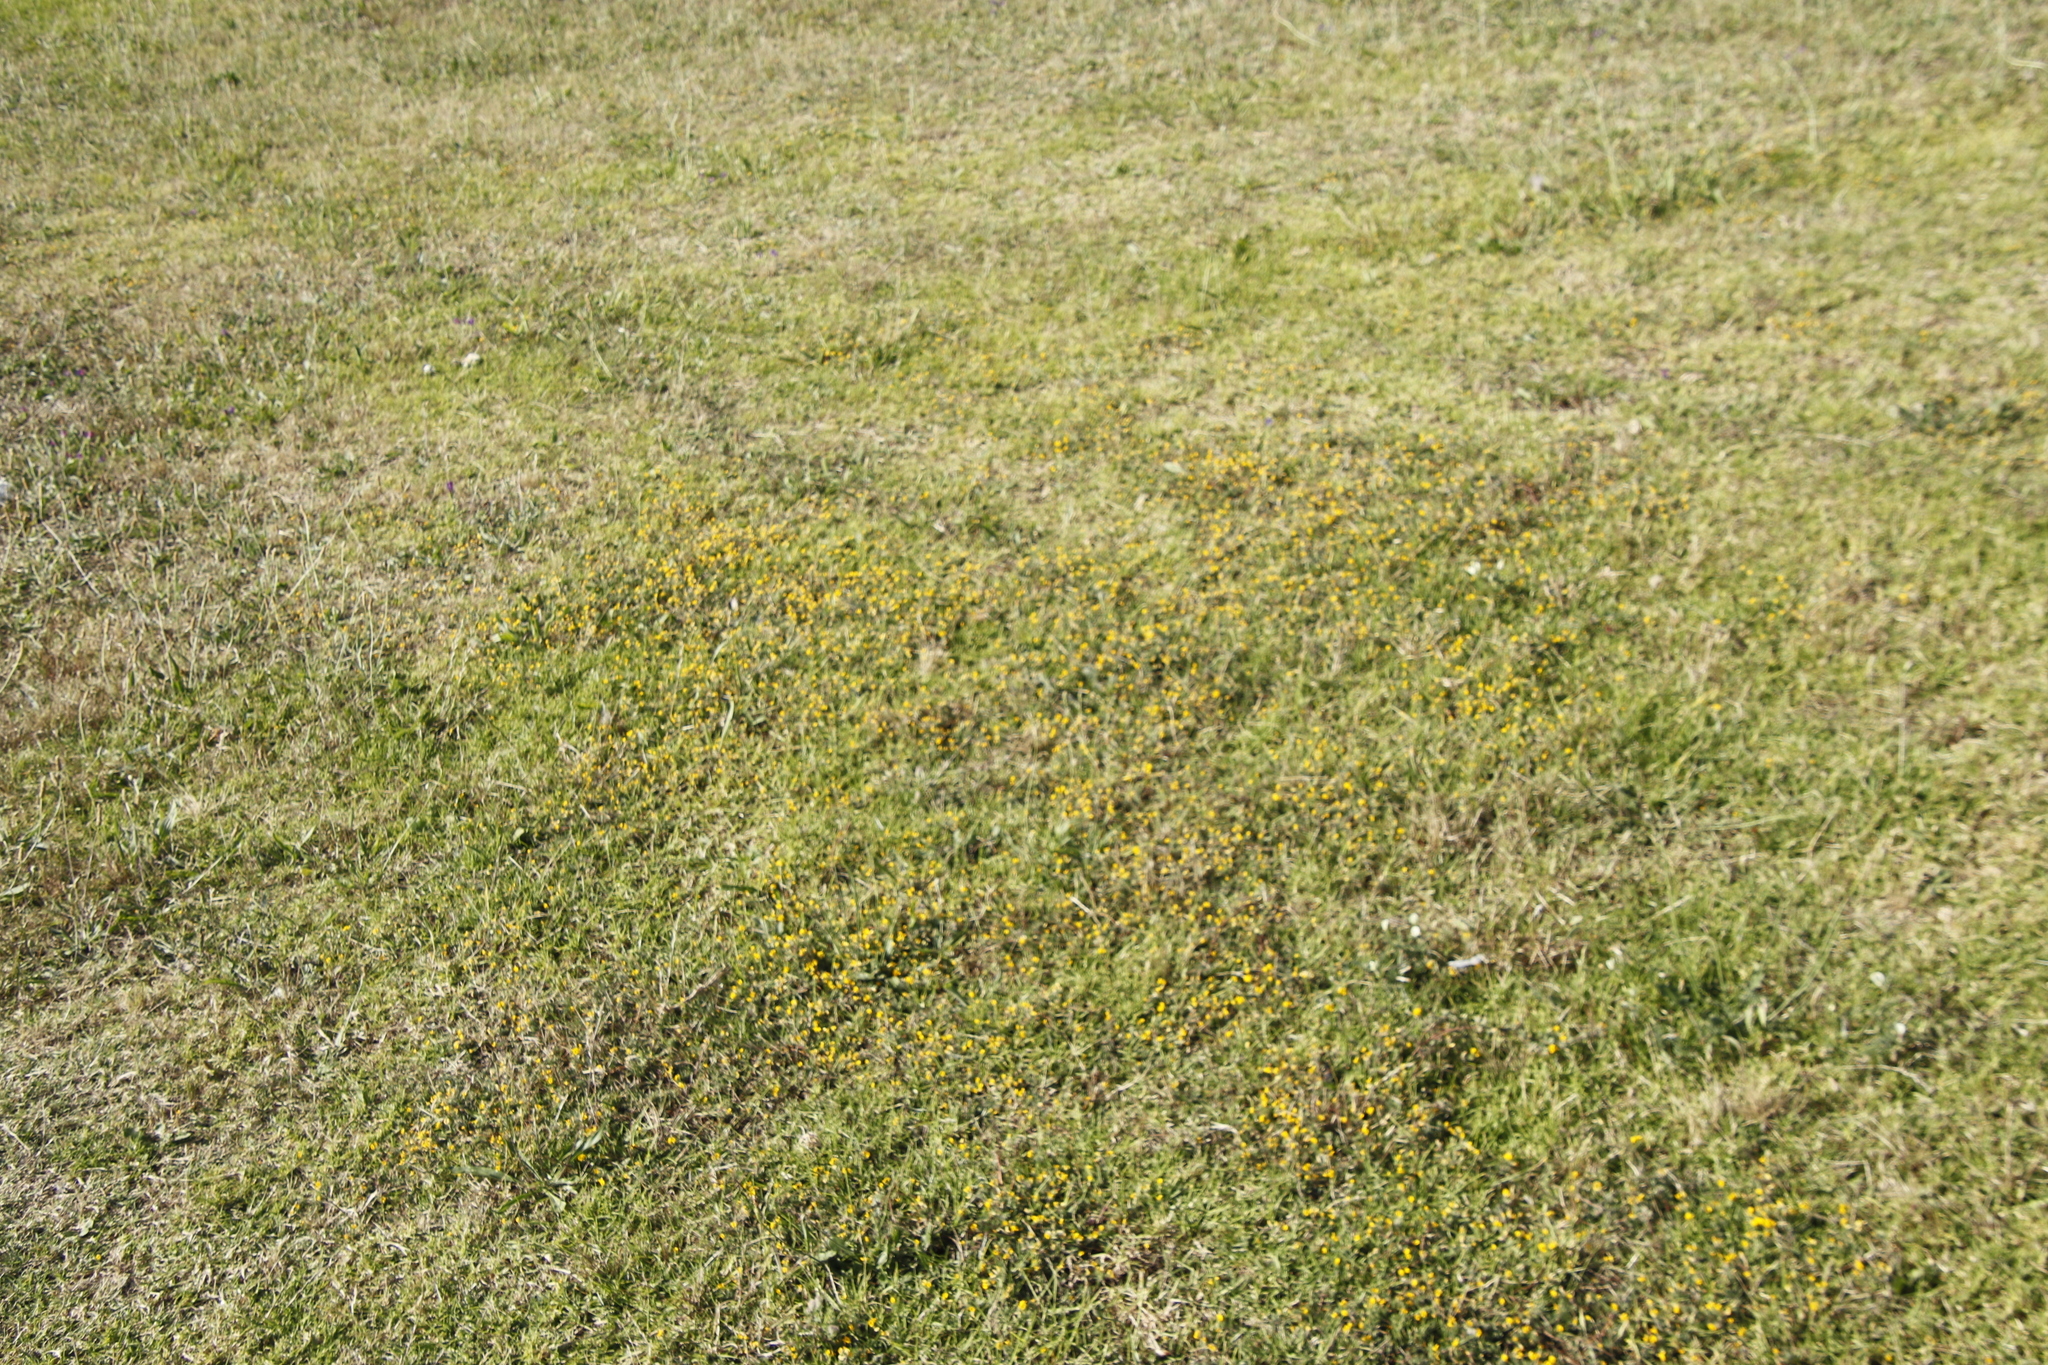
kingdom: Plantae
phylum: Tracheophyta
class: Magnoliopsida
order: Fabales
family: Fabaceae
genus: Lotus
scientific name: Lotus subbiflorus
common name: Hairy bird's-foot trefoil
